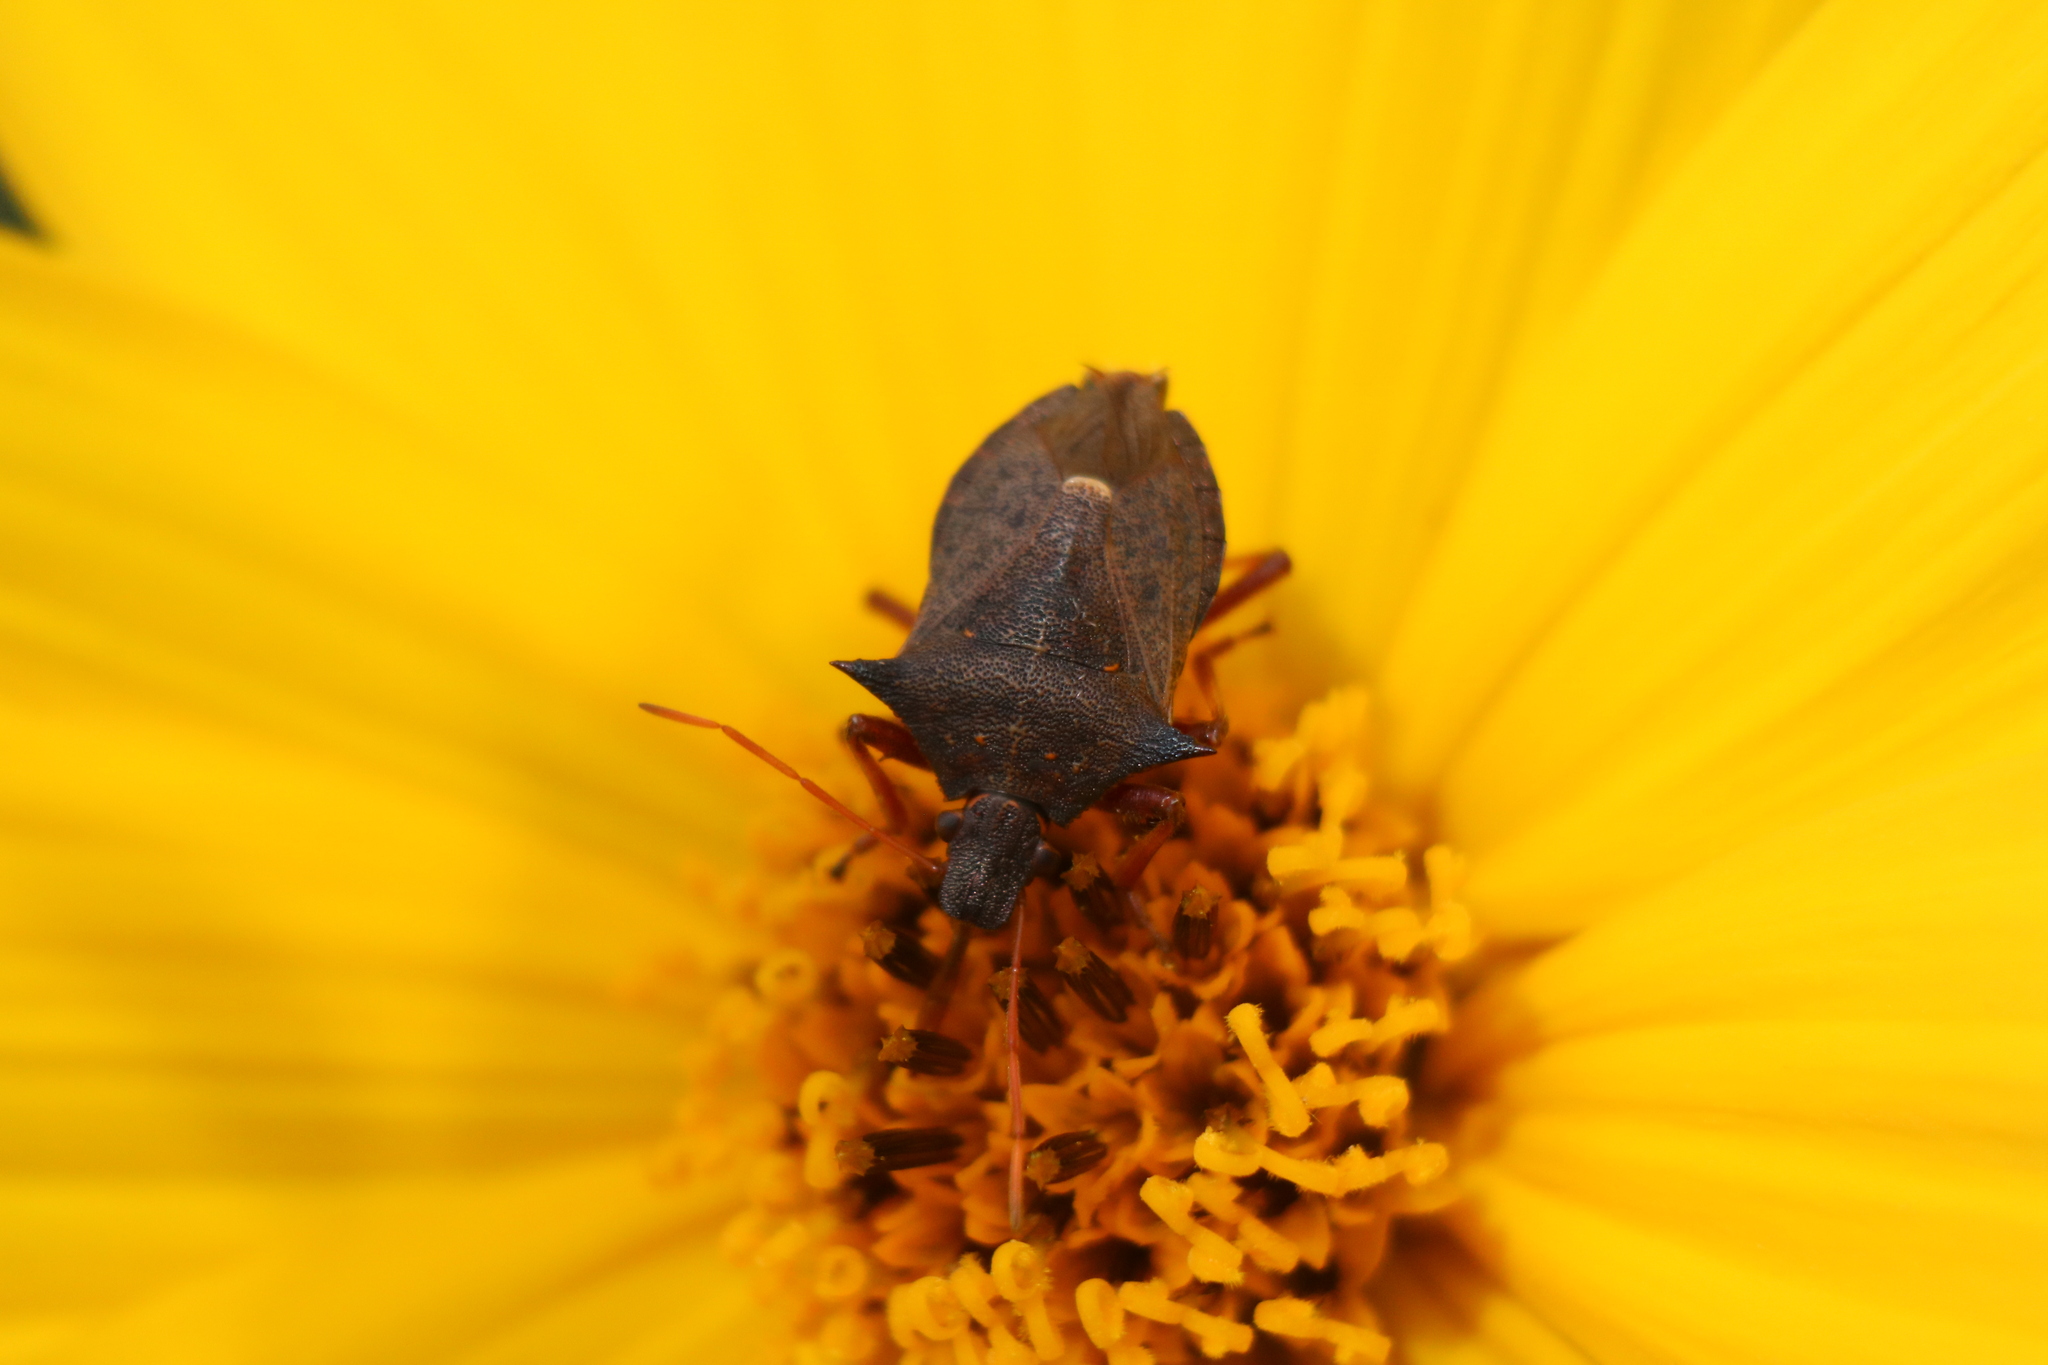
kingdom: Animalia
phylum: Arthropoda
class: Insecta
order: Hemiptera
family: Pentatomidae
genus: Picromerus
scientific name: Picromerus bidens
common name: Spiked shieldbug
